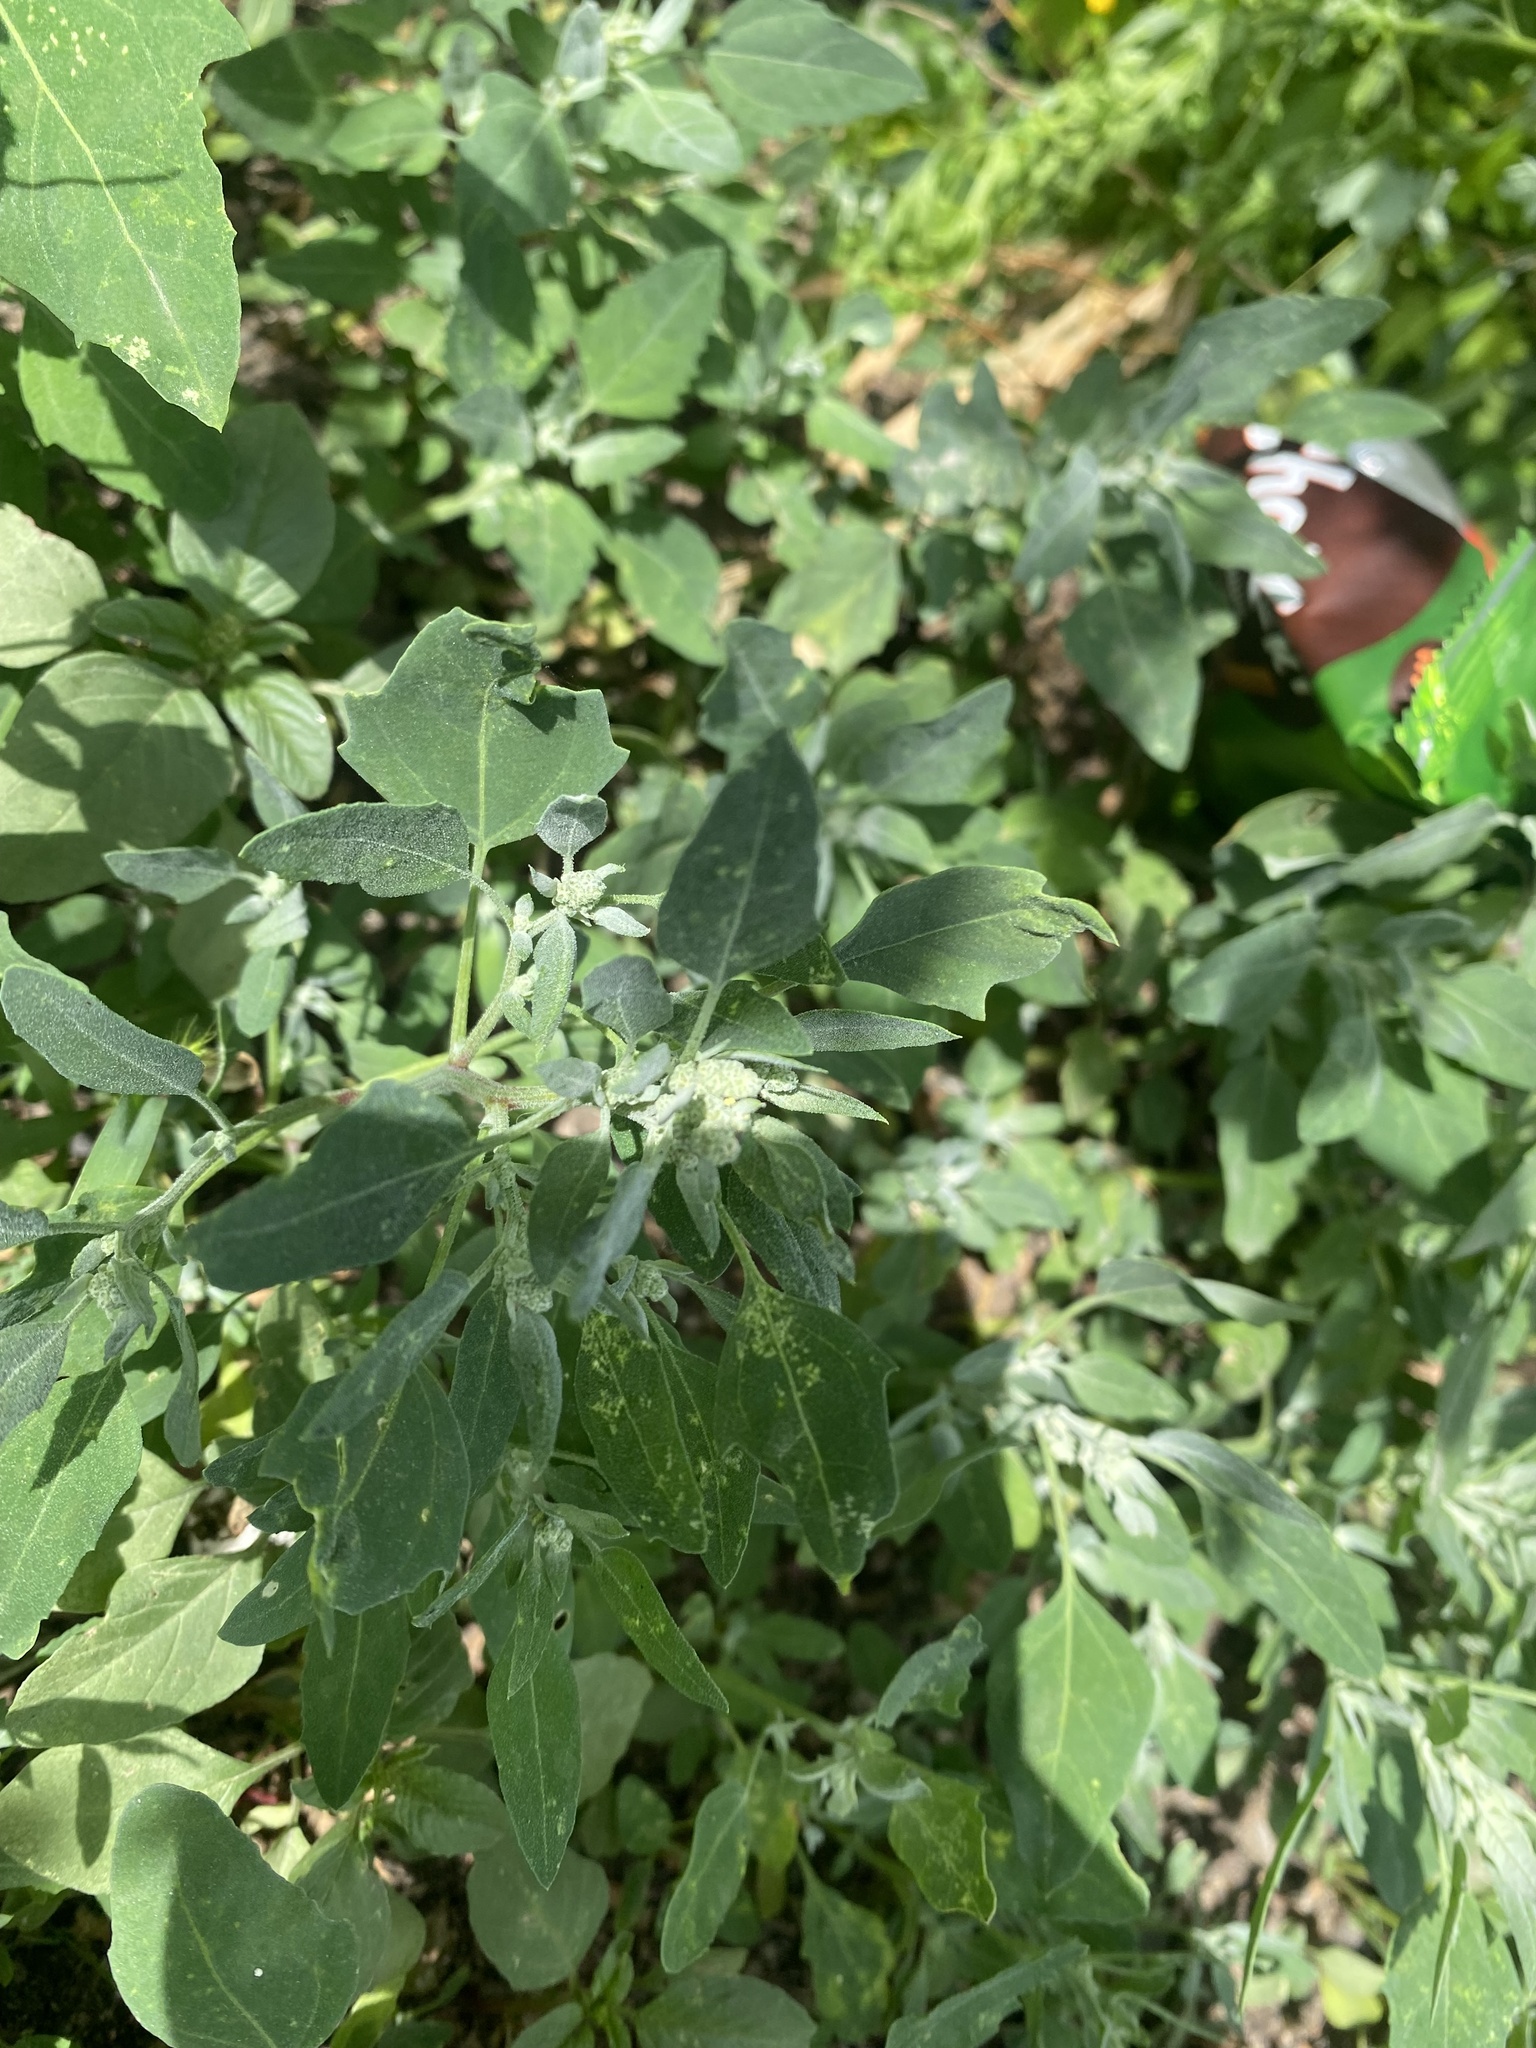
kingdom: Plantae
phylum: Tracheophyta
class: Magnoliopsida
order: Caryophyllales
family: Amaranthaceae
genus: Chenopodium
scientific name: Chenopodium album
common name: Fat-hen
